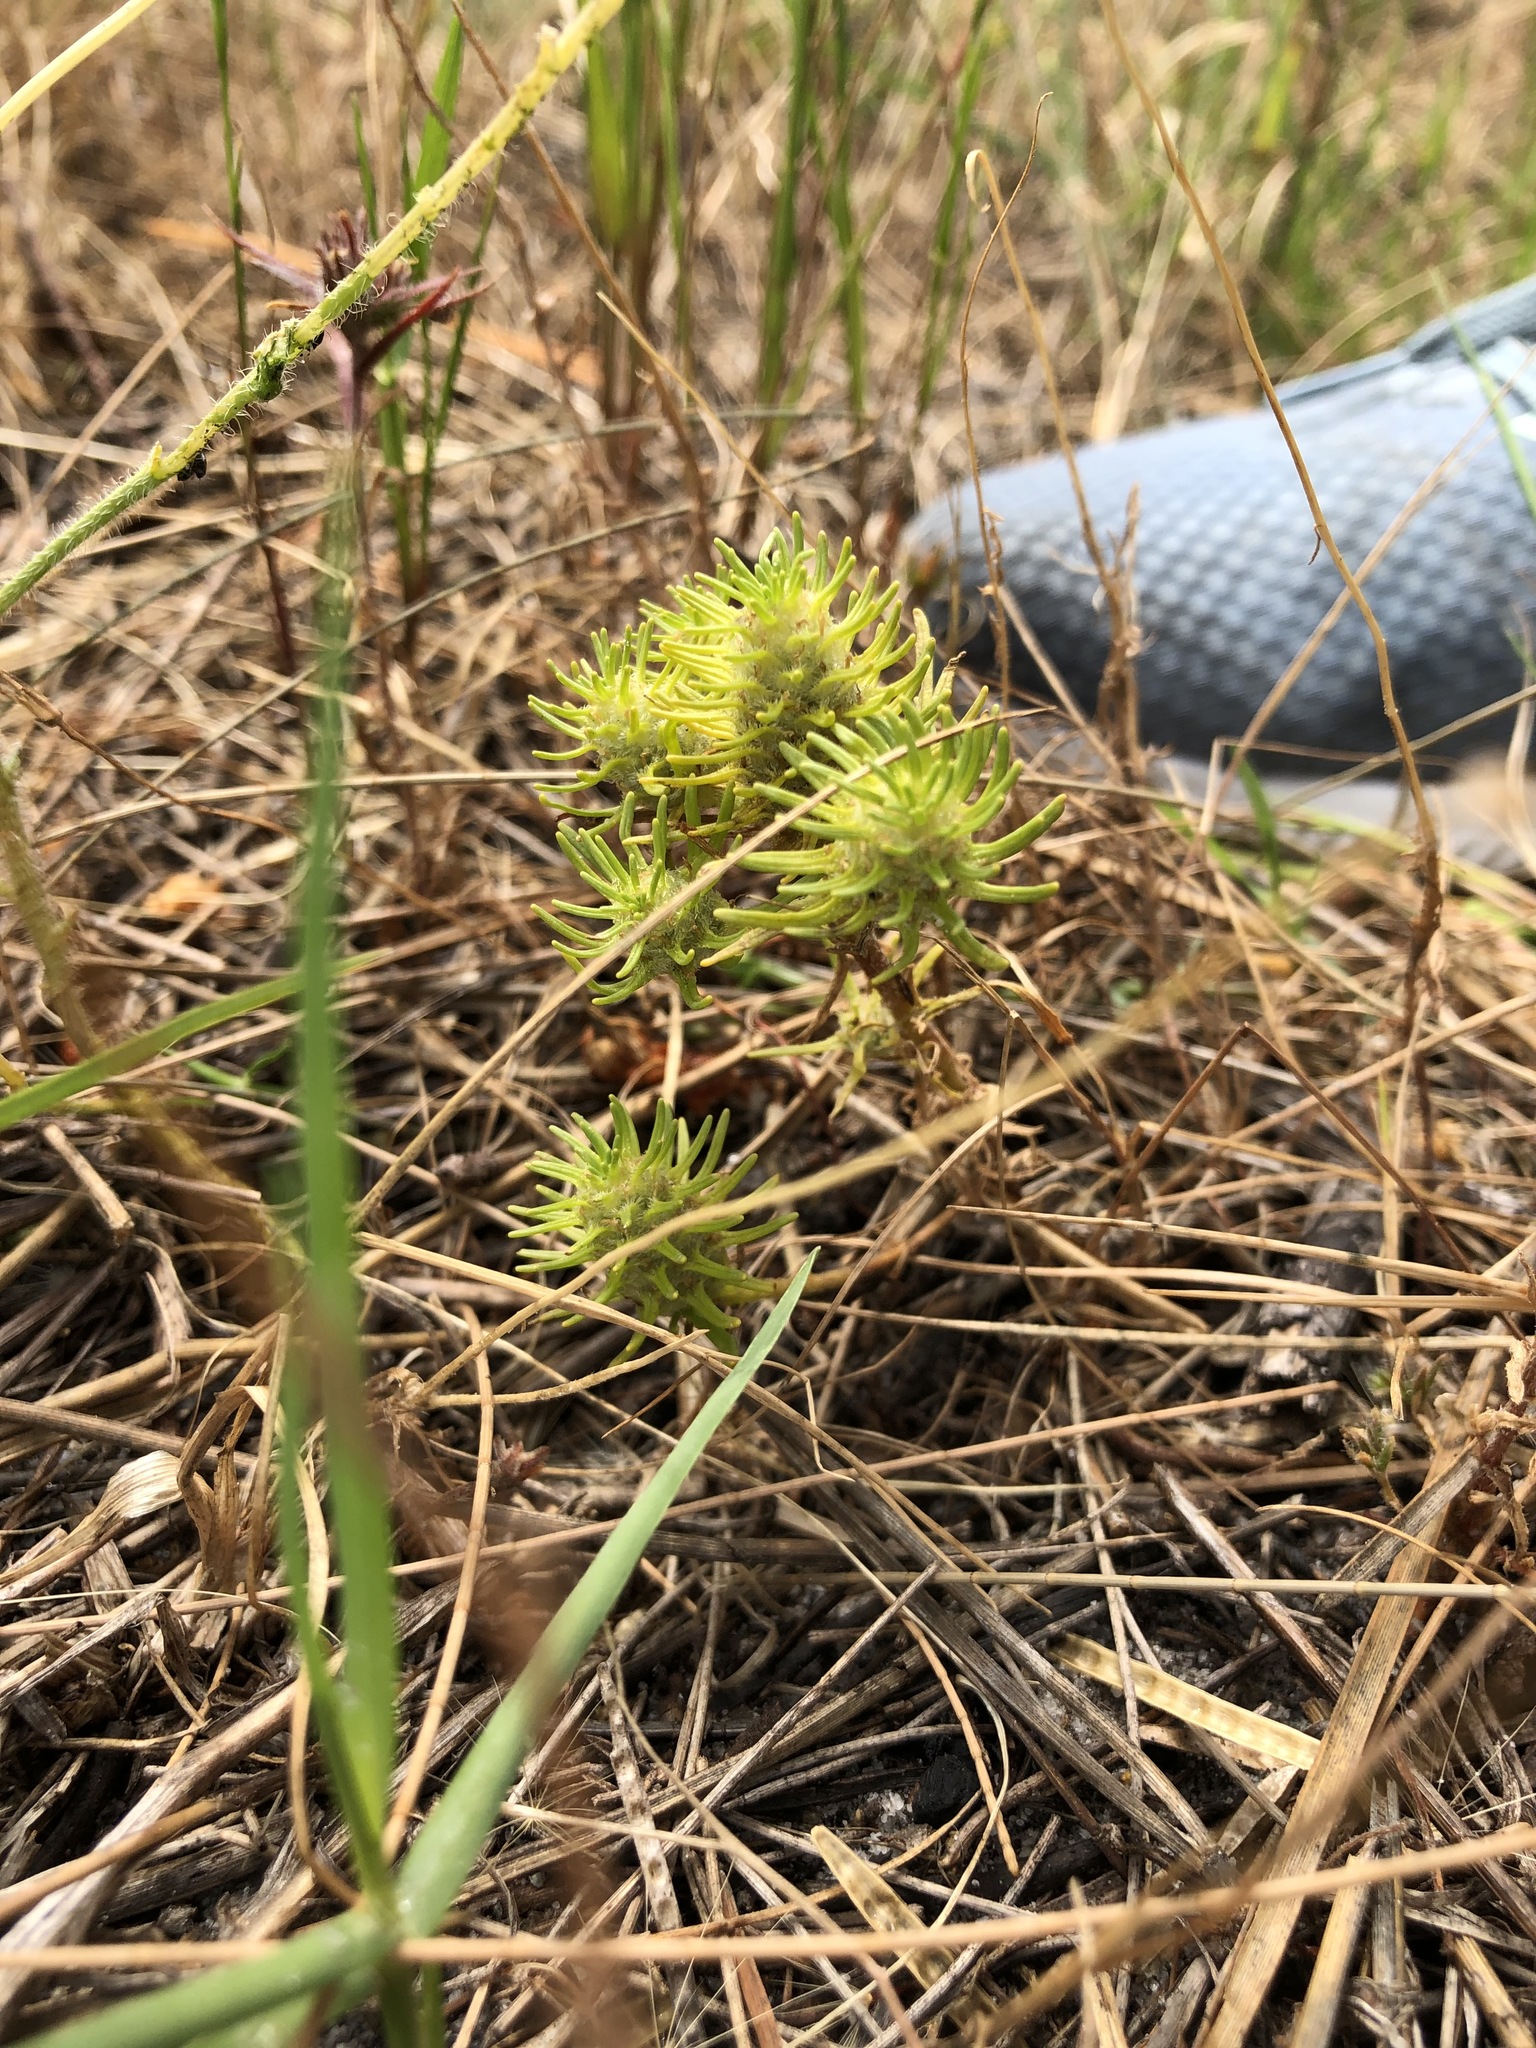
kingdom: Plantae
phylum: Tracheophyta
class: Magnoliopsida
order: Lamiales
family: Scrophulariaceae
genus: Dischisma
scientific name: Dischisma capitatum
